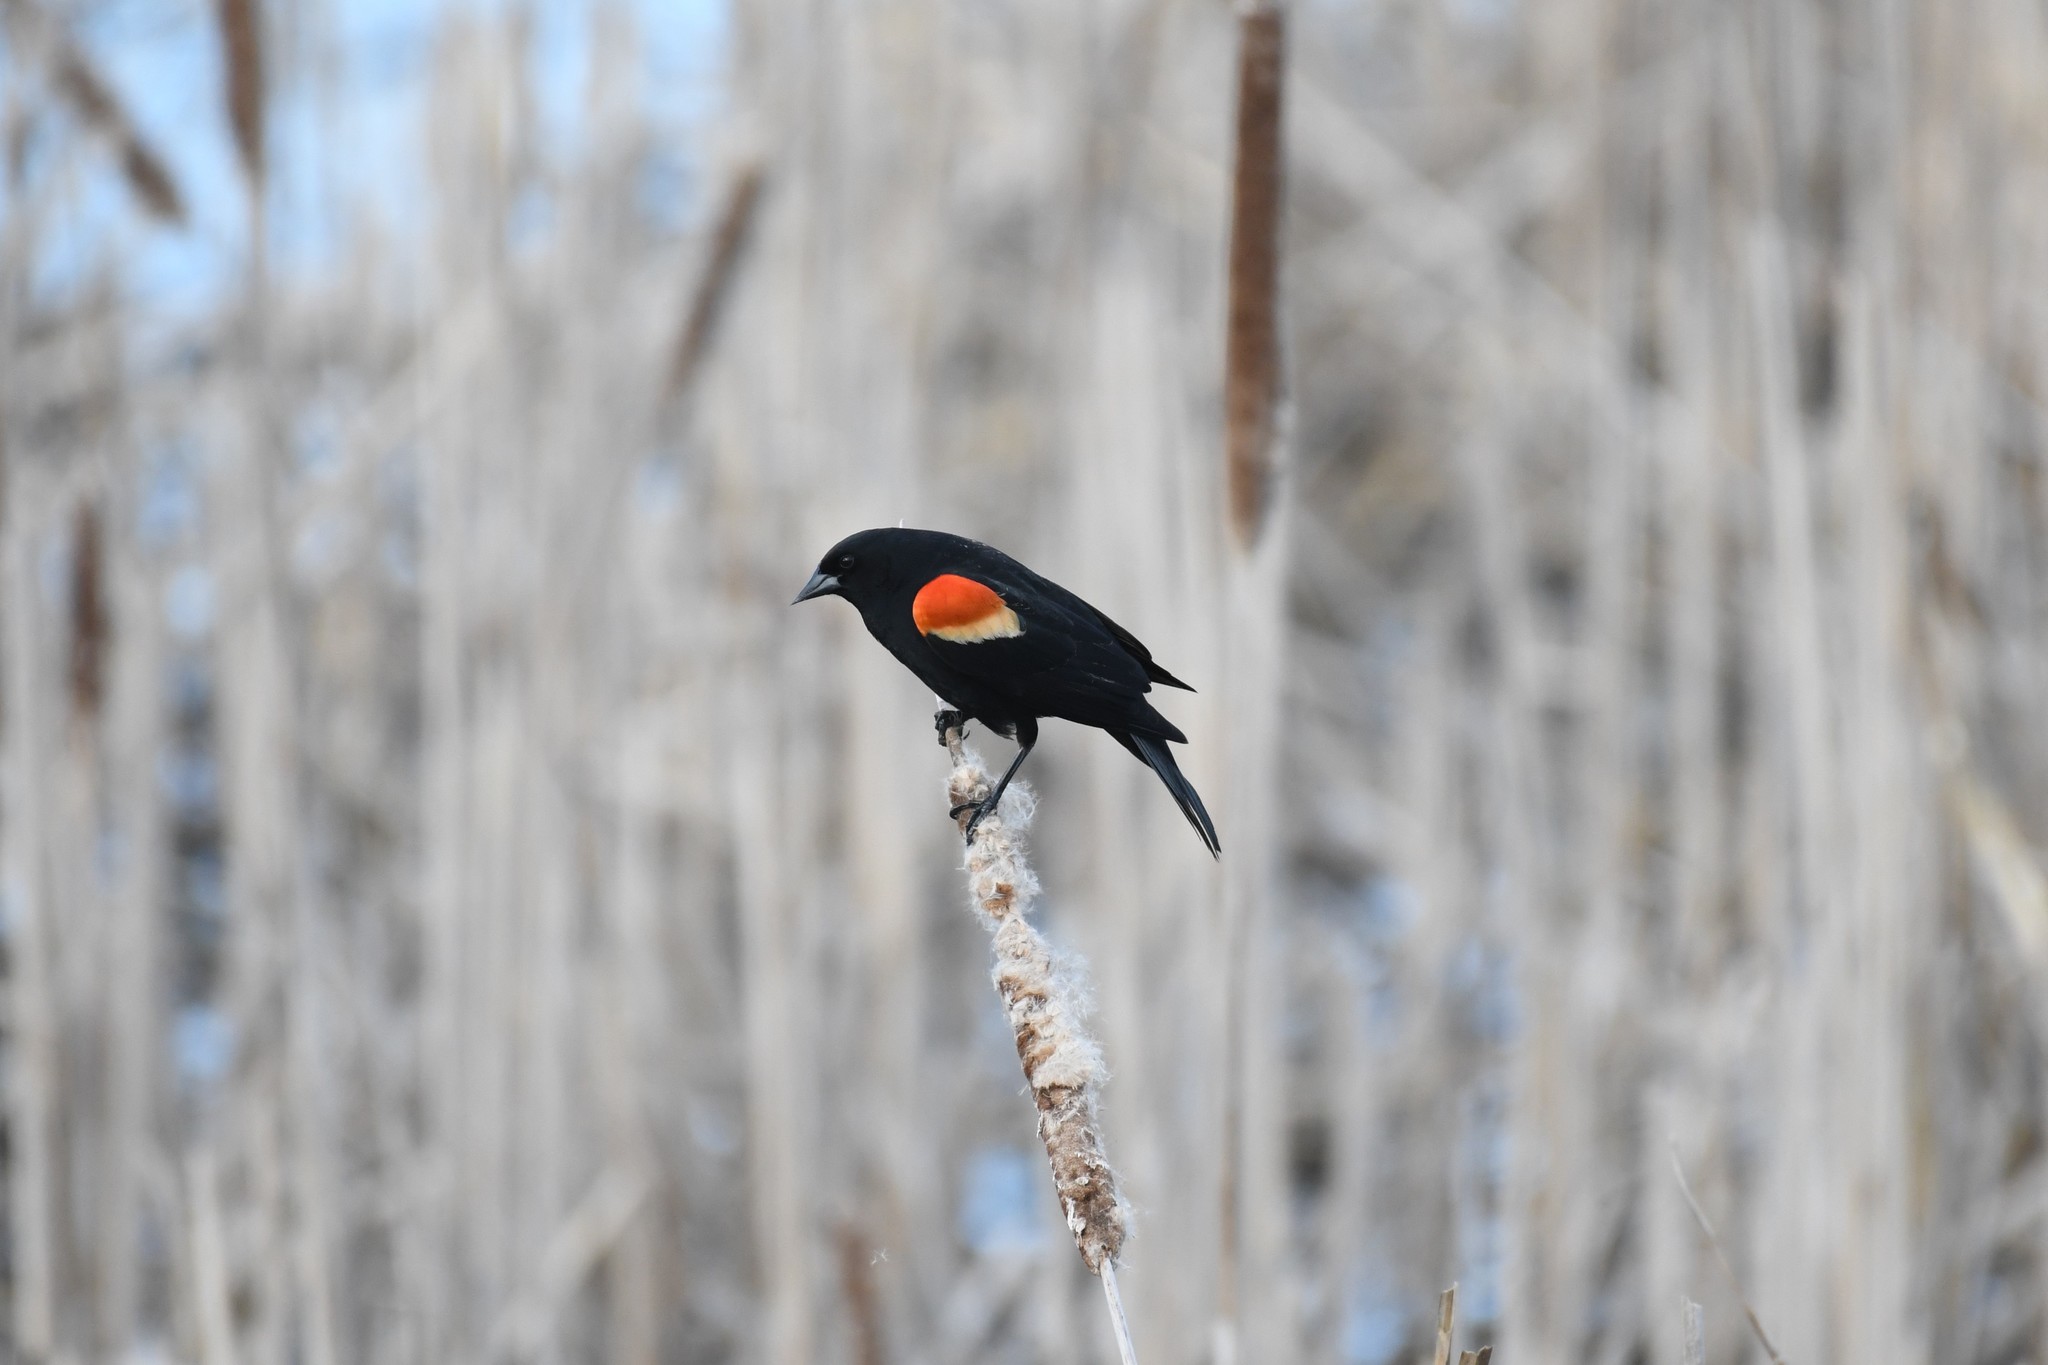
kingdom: Animalia
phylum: Chordata
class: Aves
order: Passeriformes
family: Icteridae
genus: Agelaius
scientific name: Agelaius phoeniceus
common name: Red-winged blackbird
